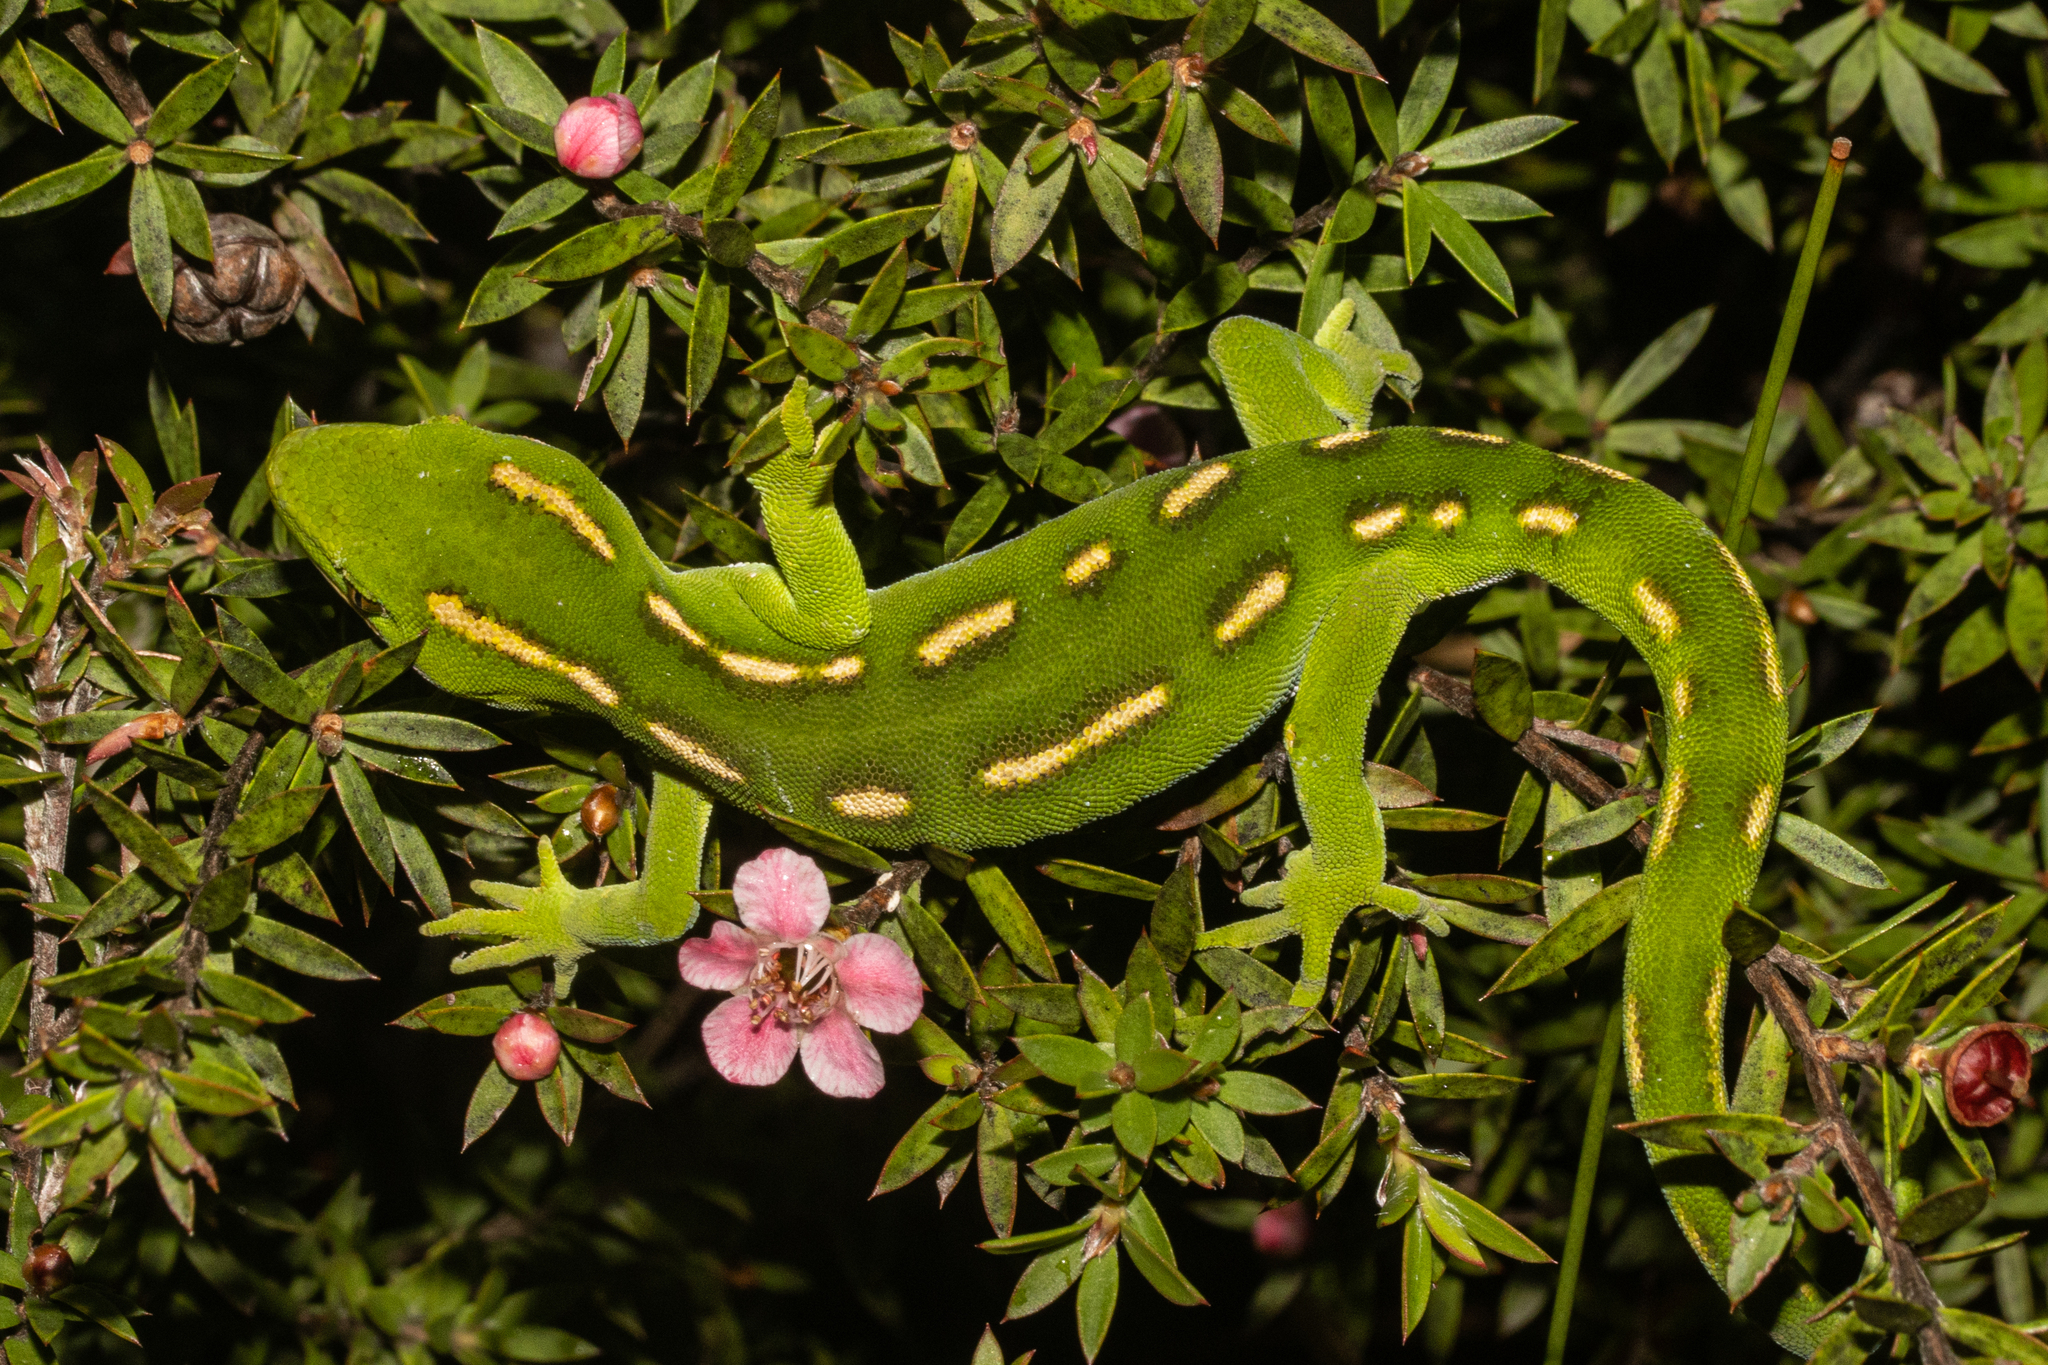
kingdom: Animalia
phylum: Chordata
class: Squamata
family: Diplodactylidae
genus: Naultinus
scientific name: Naultinus flavirictus
